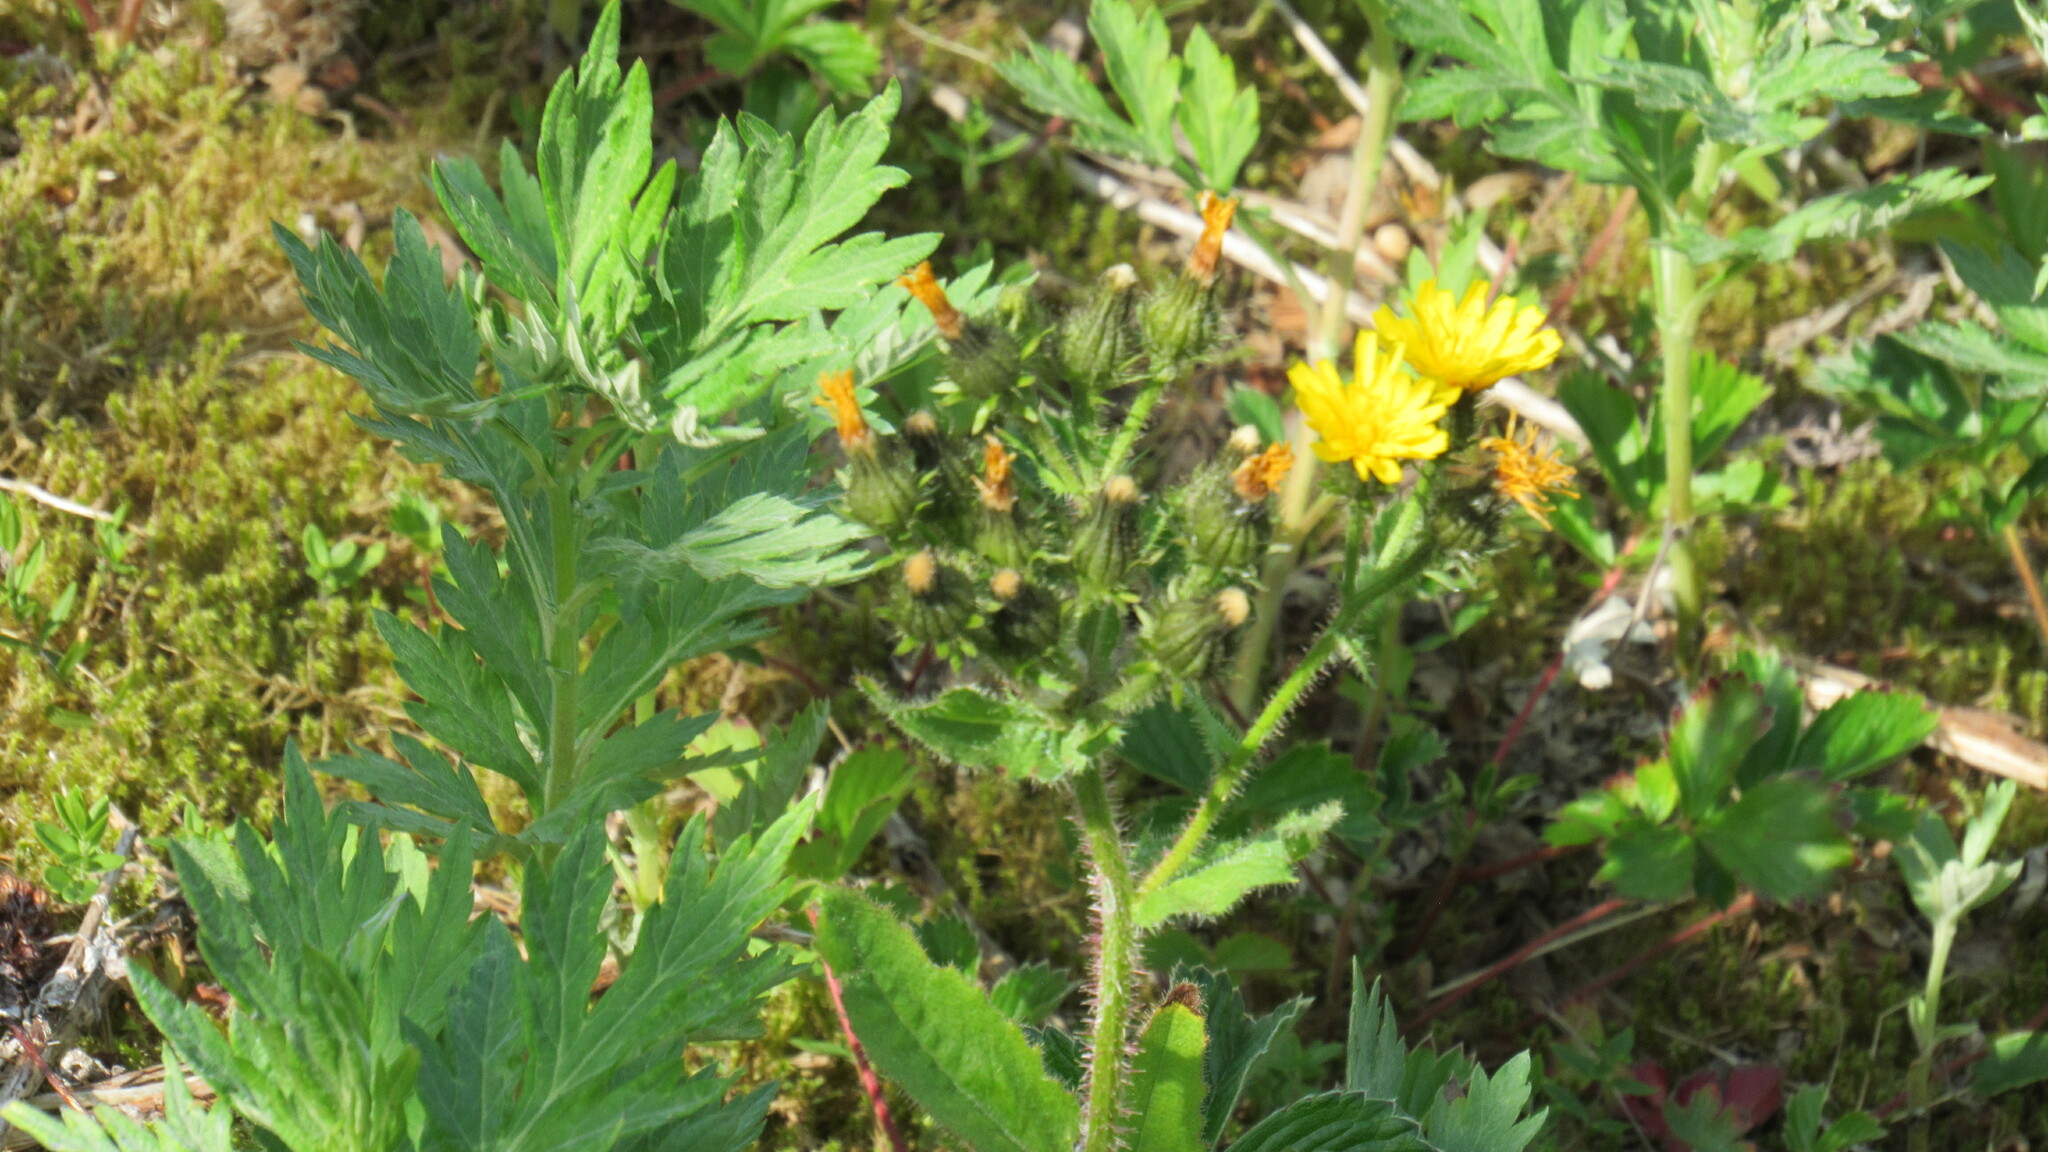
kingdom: Plantae
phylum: Tracheophyta
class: Magnoliopsida
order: Asterales
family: Asteraceae
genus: Picris
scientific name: Picris japonica
